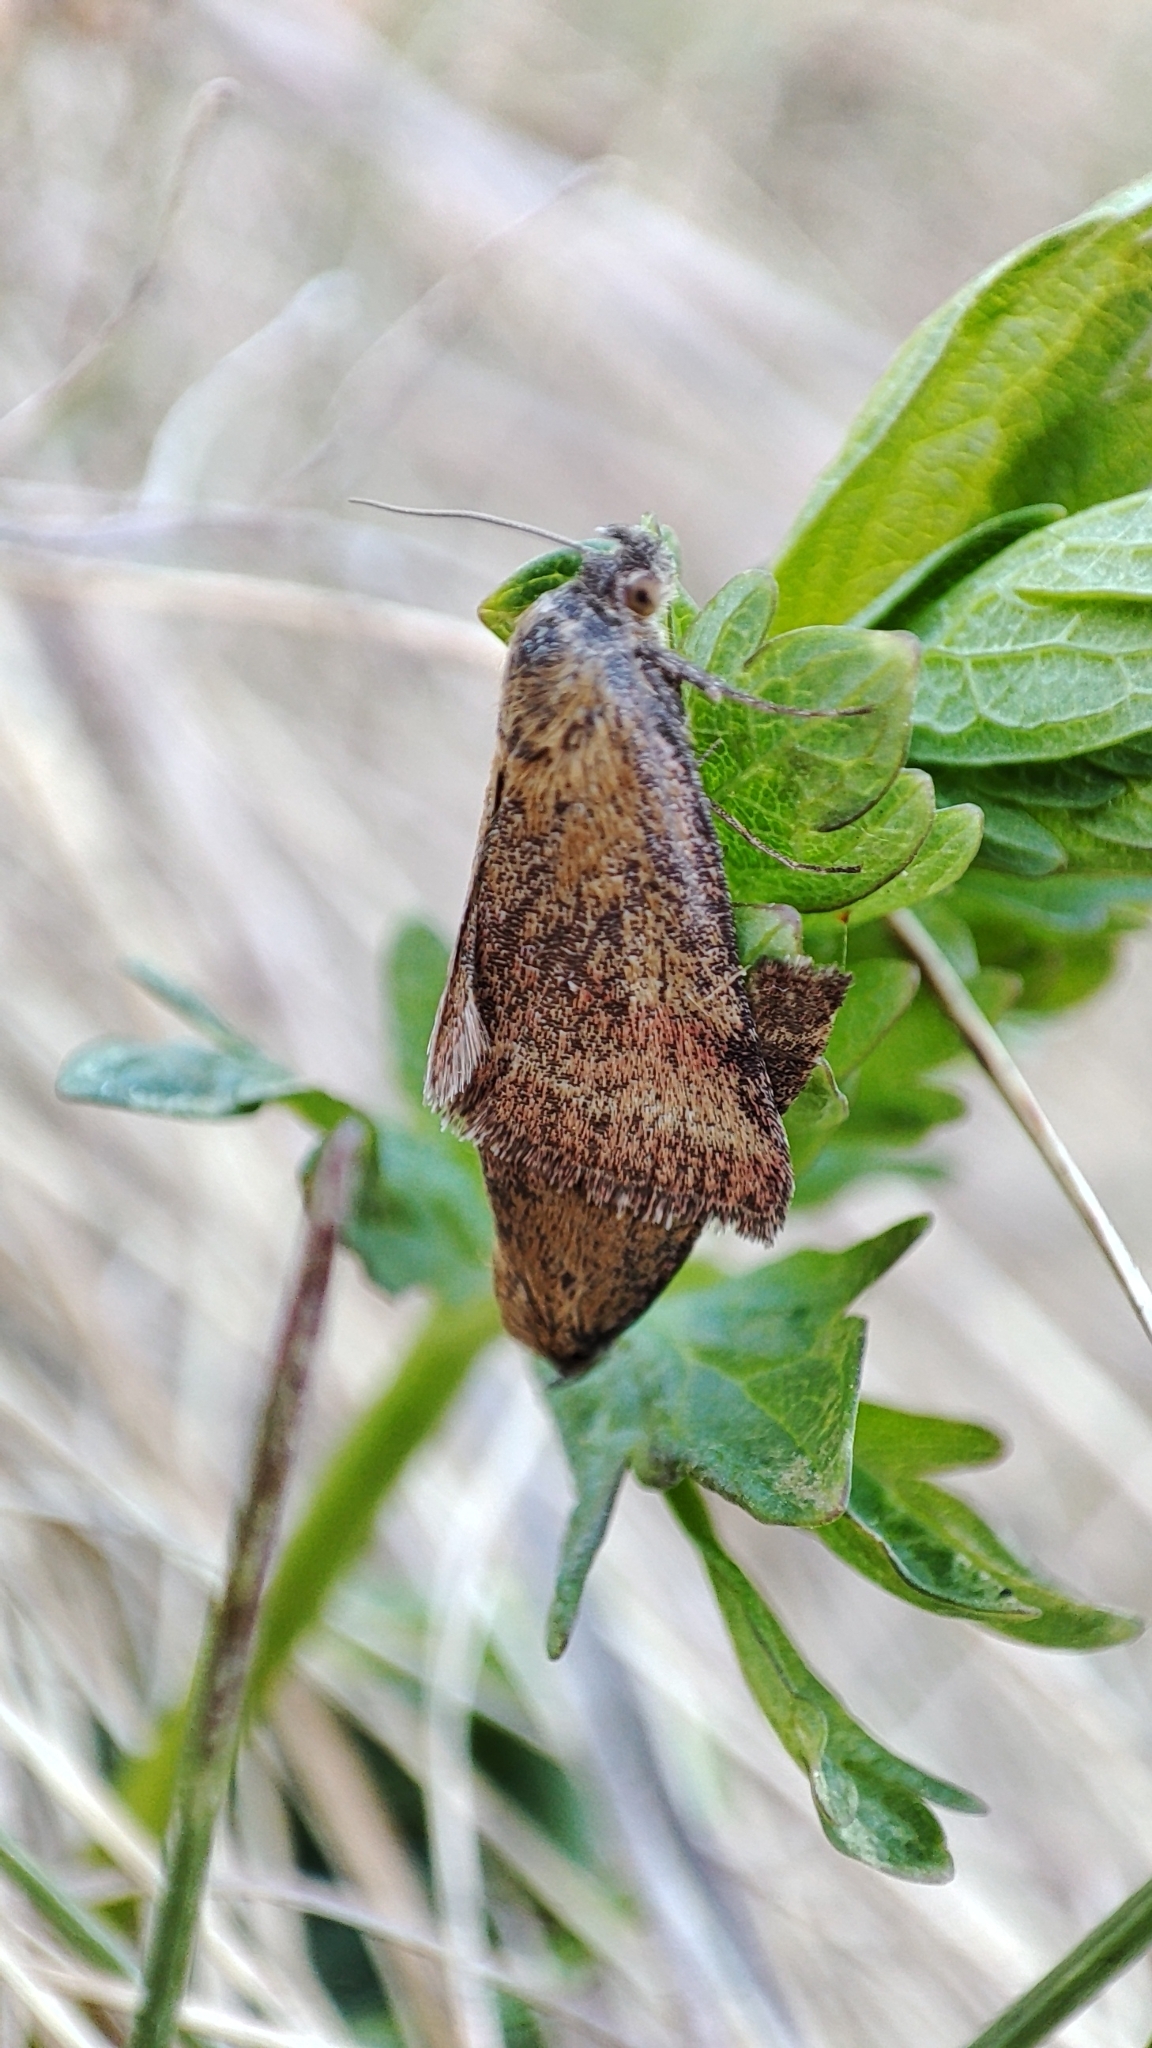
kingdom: Animalia
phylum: Arthropoda
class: Insecta
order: Lepidoptera
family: Erebidae
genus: Phytometra
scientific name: Phytometra viridaria
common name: Small purple-barred
